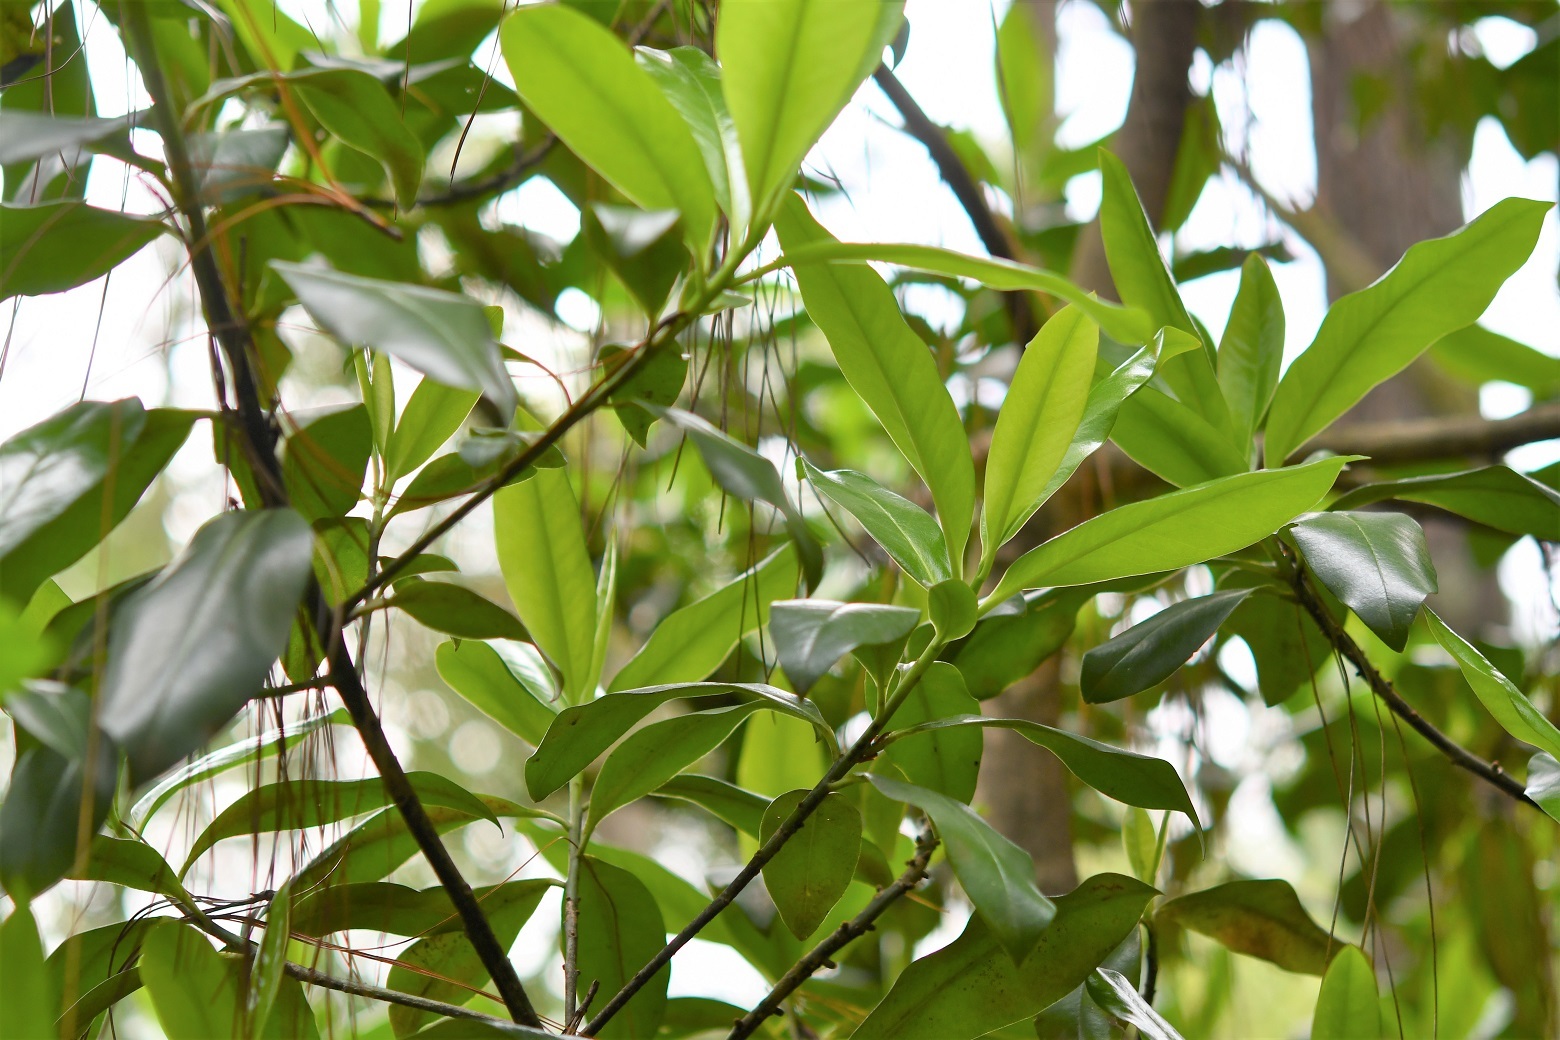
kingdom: Plantae
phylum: Tracheophyta
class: Magnoliopsida
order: Ericales
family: Primulaceae
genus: Myrsine
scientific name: Myrsine juergensenii
